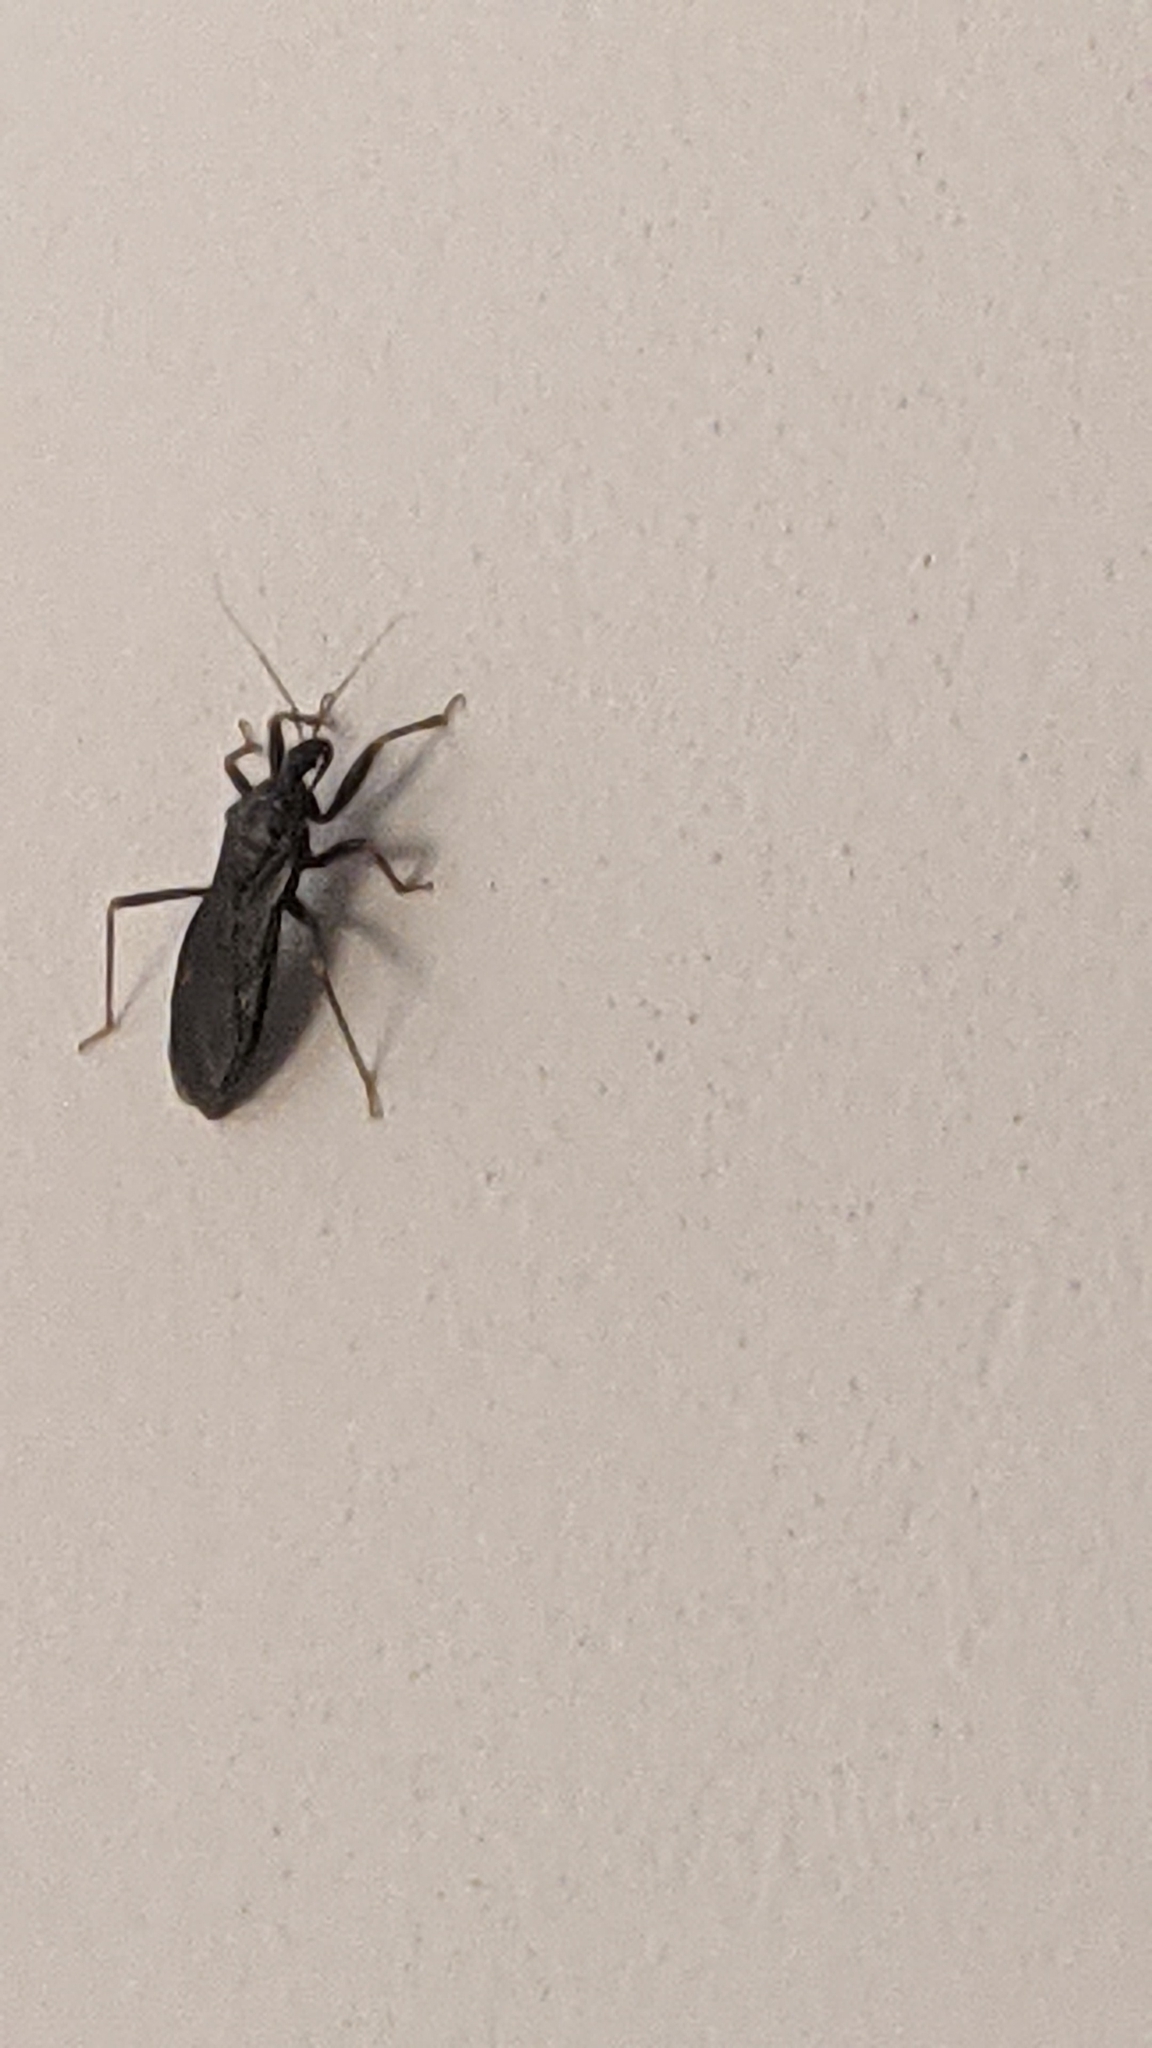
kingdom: Animalia
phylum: Arthropoda
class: Insecta
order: Hemiptera
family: Reduviidae
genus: Reduvius
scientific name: Reduvius personatus
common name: Masked hunter
